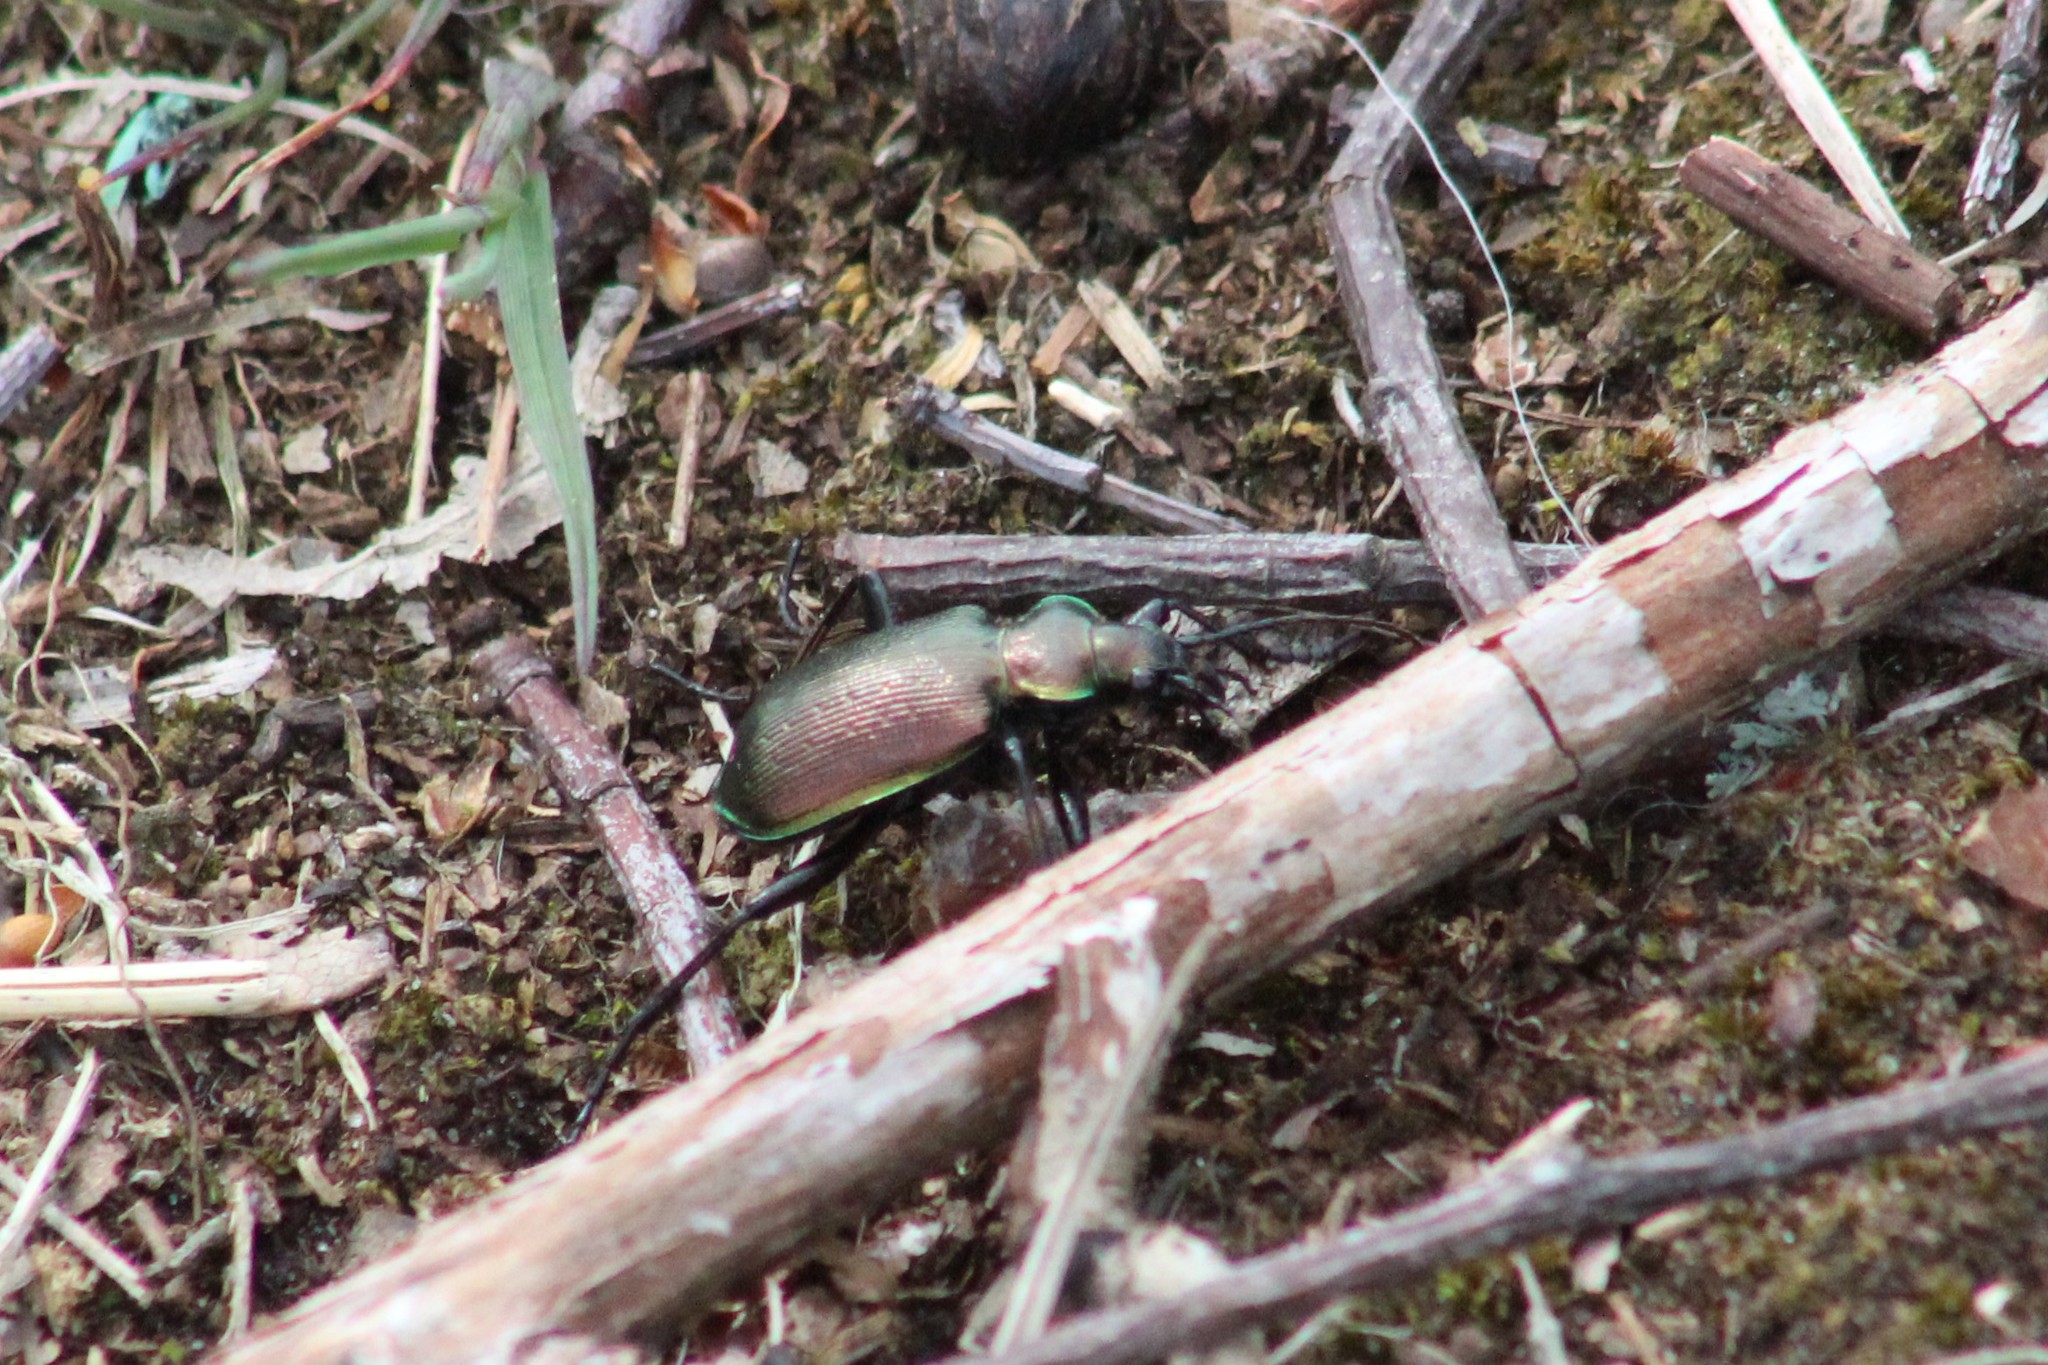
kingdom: Animalia
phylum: Arthropoda
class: Insecta
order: Coleoptera
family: Carabidae
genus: Calosoma
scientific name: Calosoma inquisitor
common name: Caterpillar-hunter
